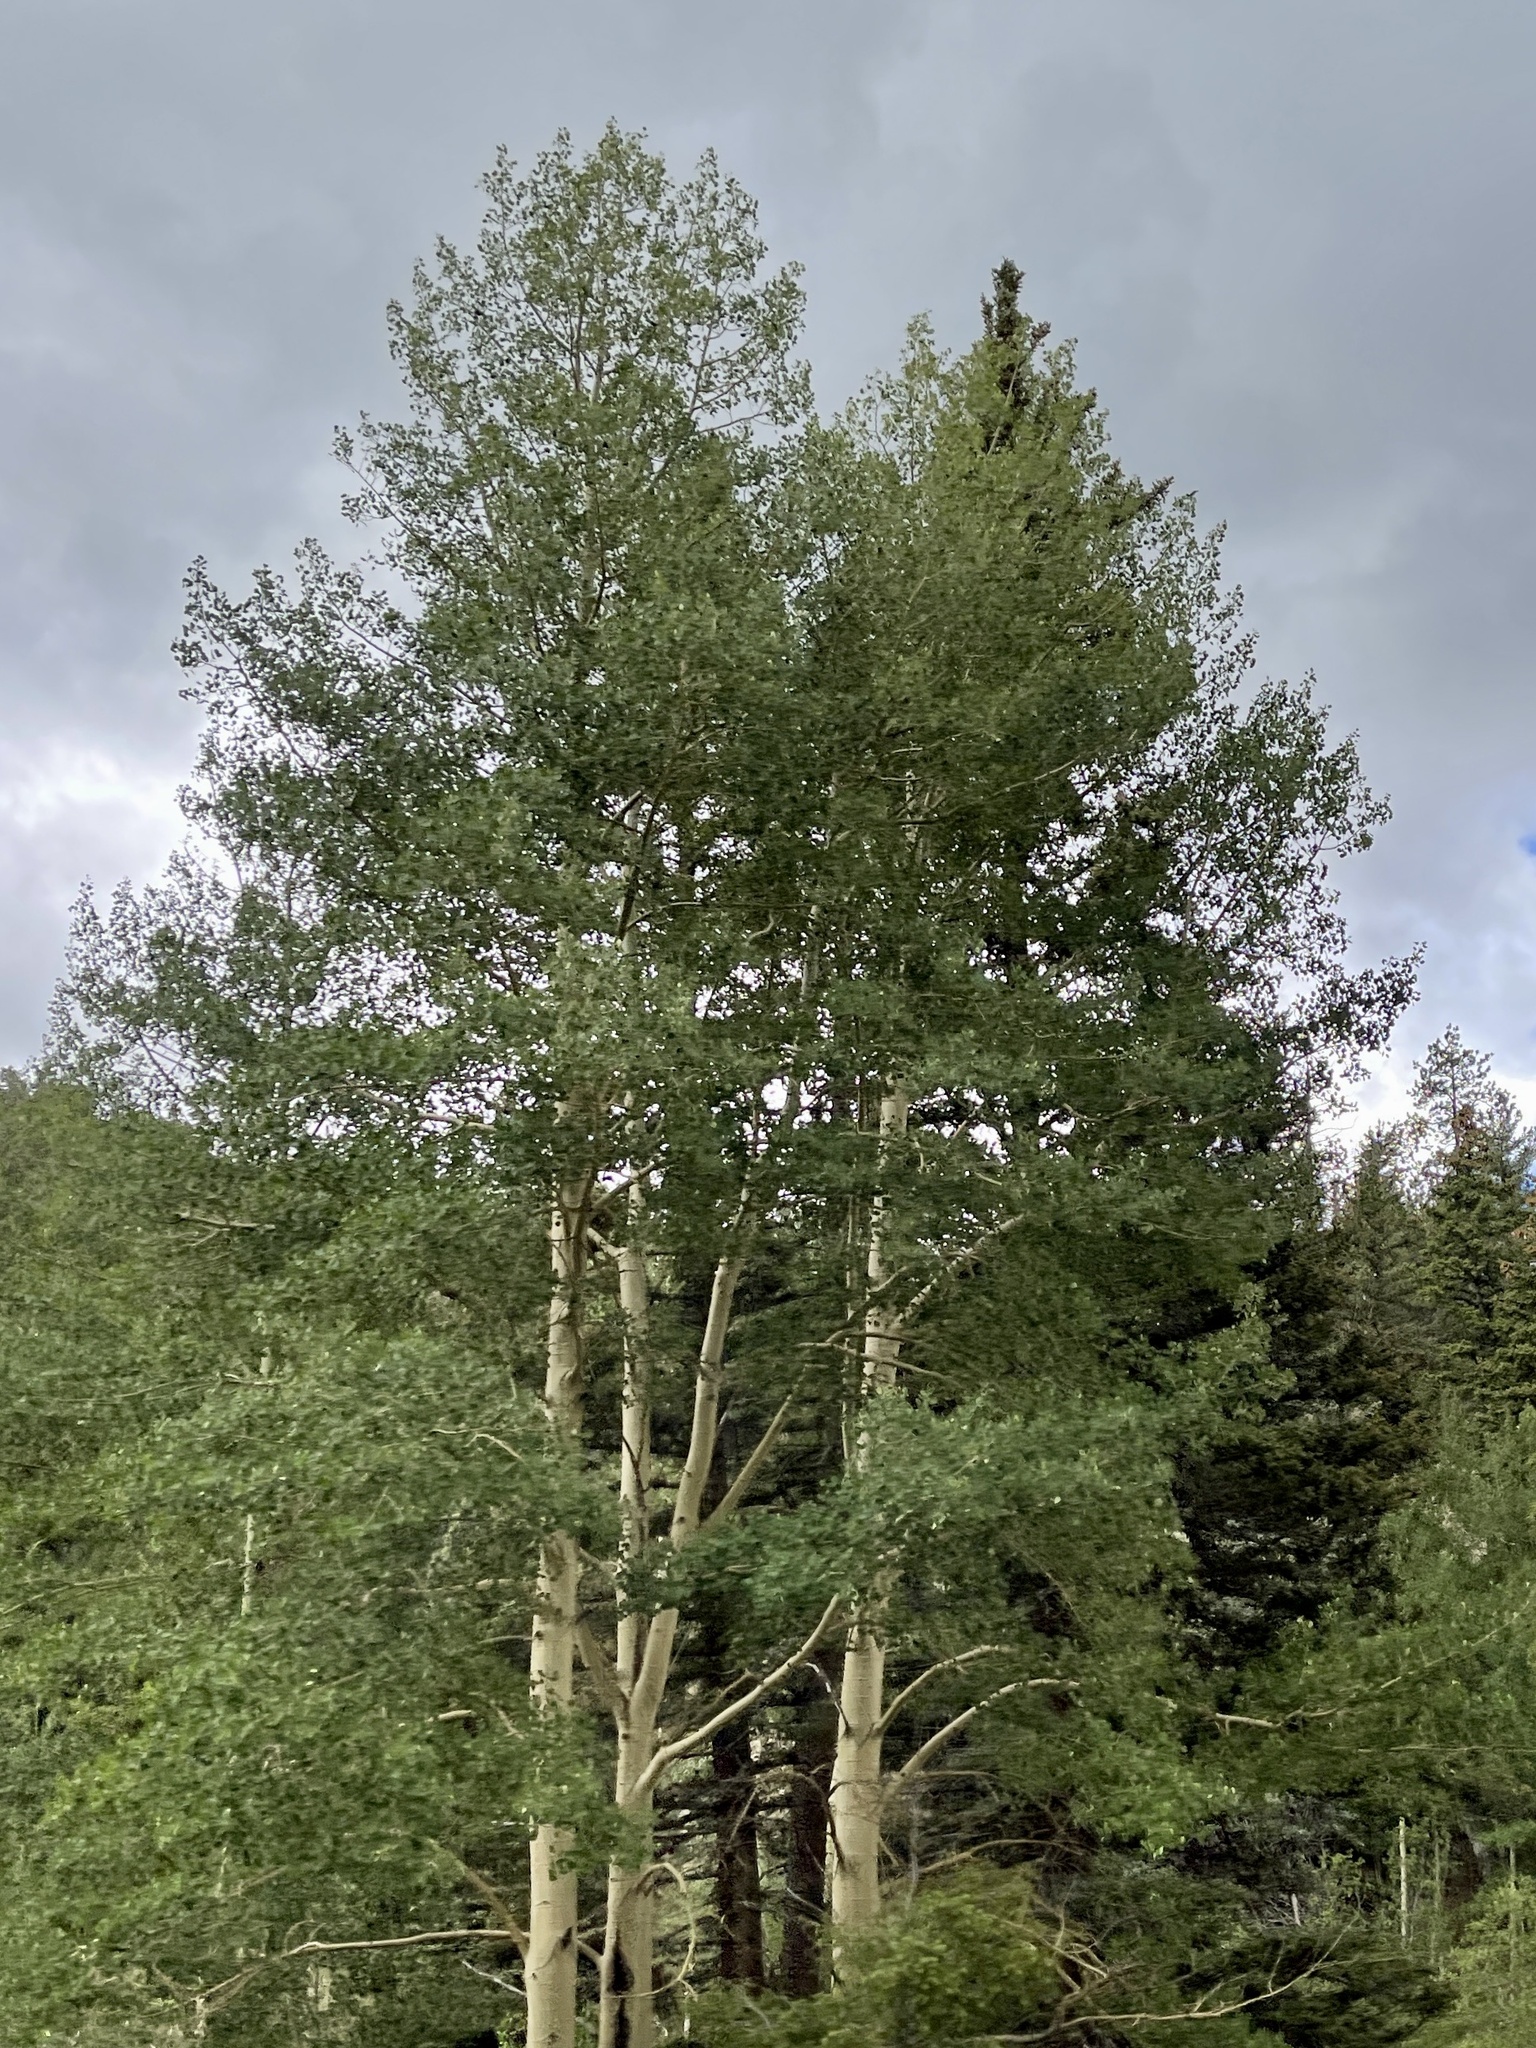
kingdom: Plantae
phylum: Tracheophyta
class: Magnoliopsida
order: Malpighiales
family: Salicaceae
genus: Populus
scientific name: Populus tremuloides
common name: Quaking aspen
